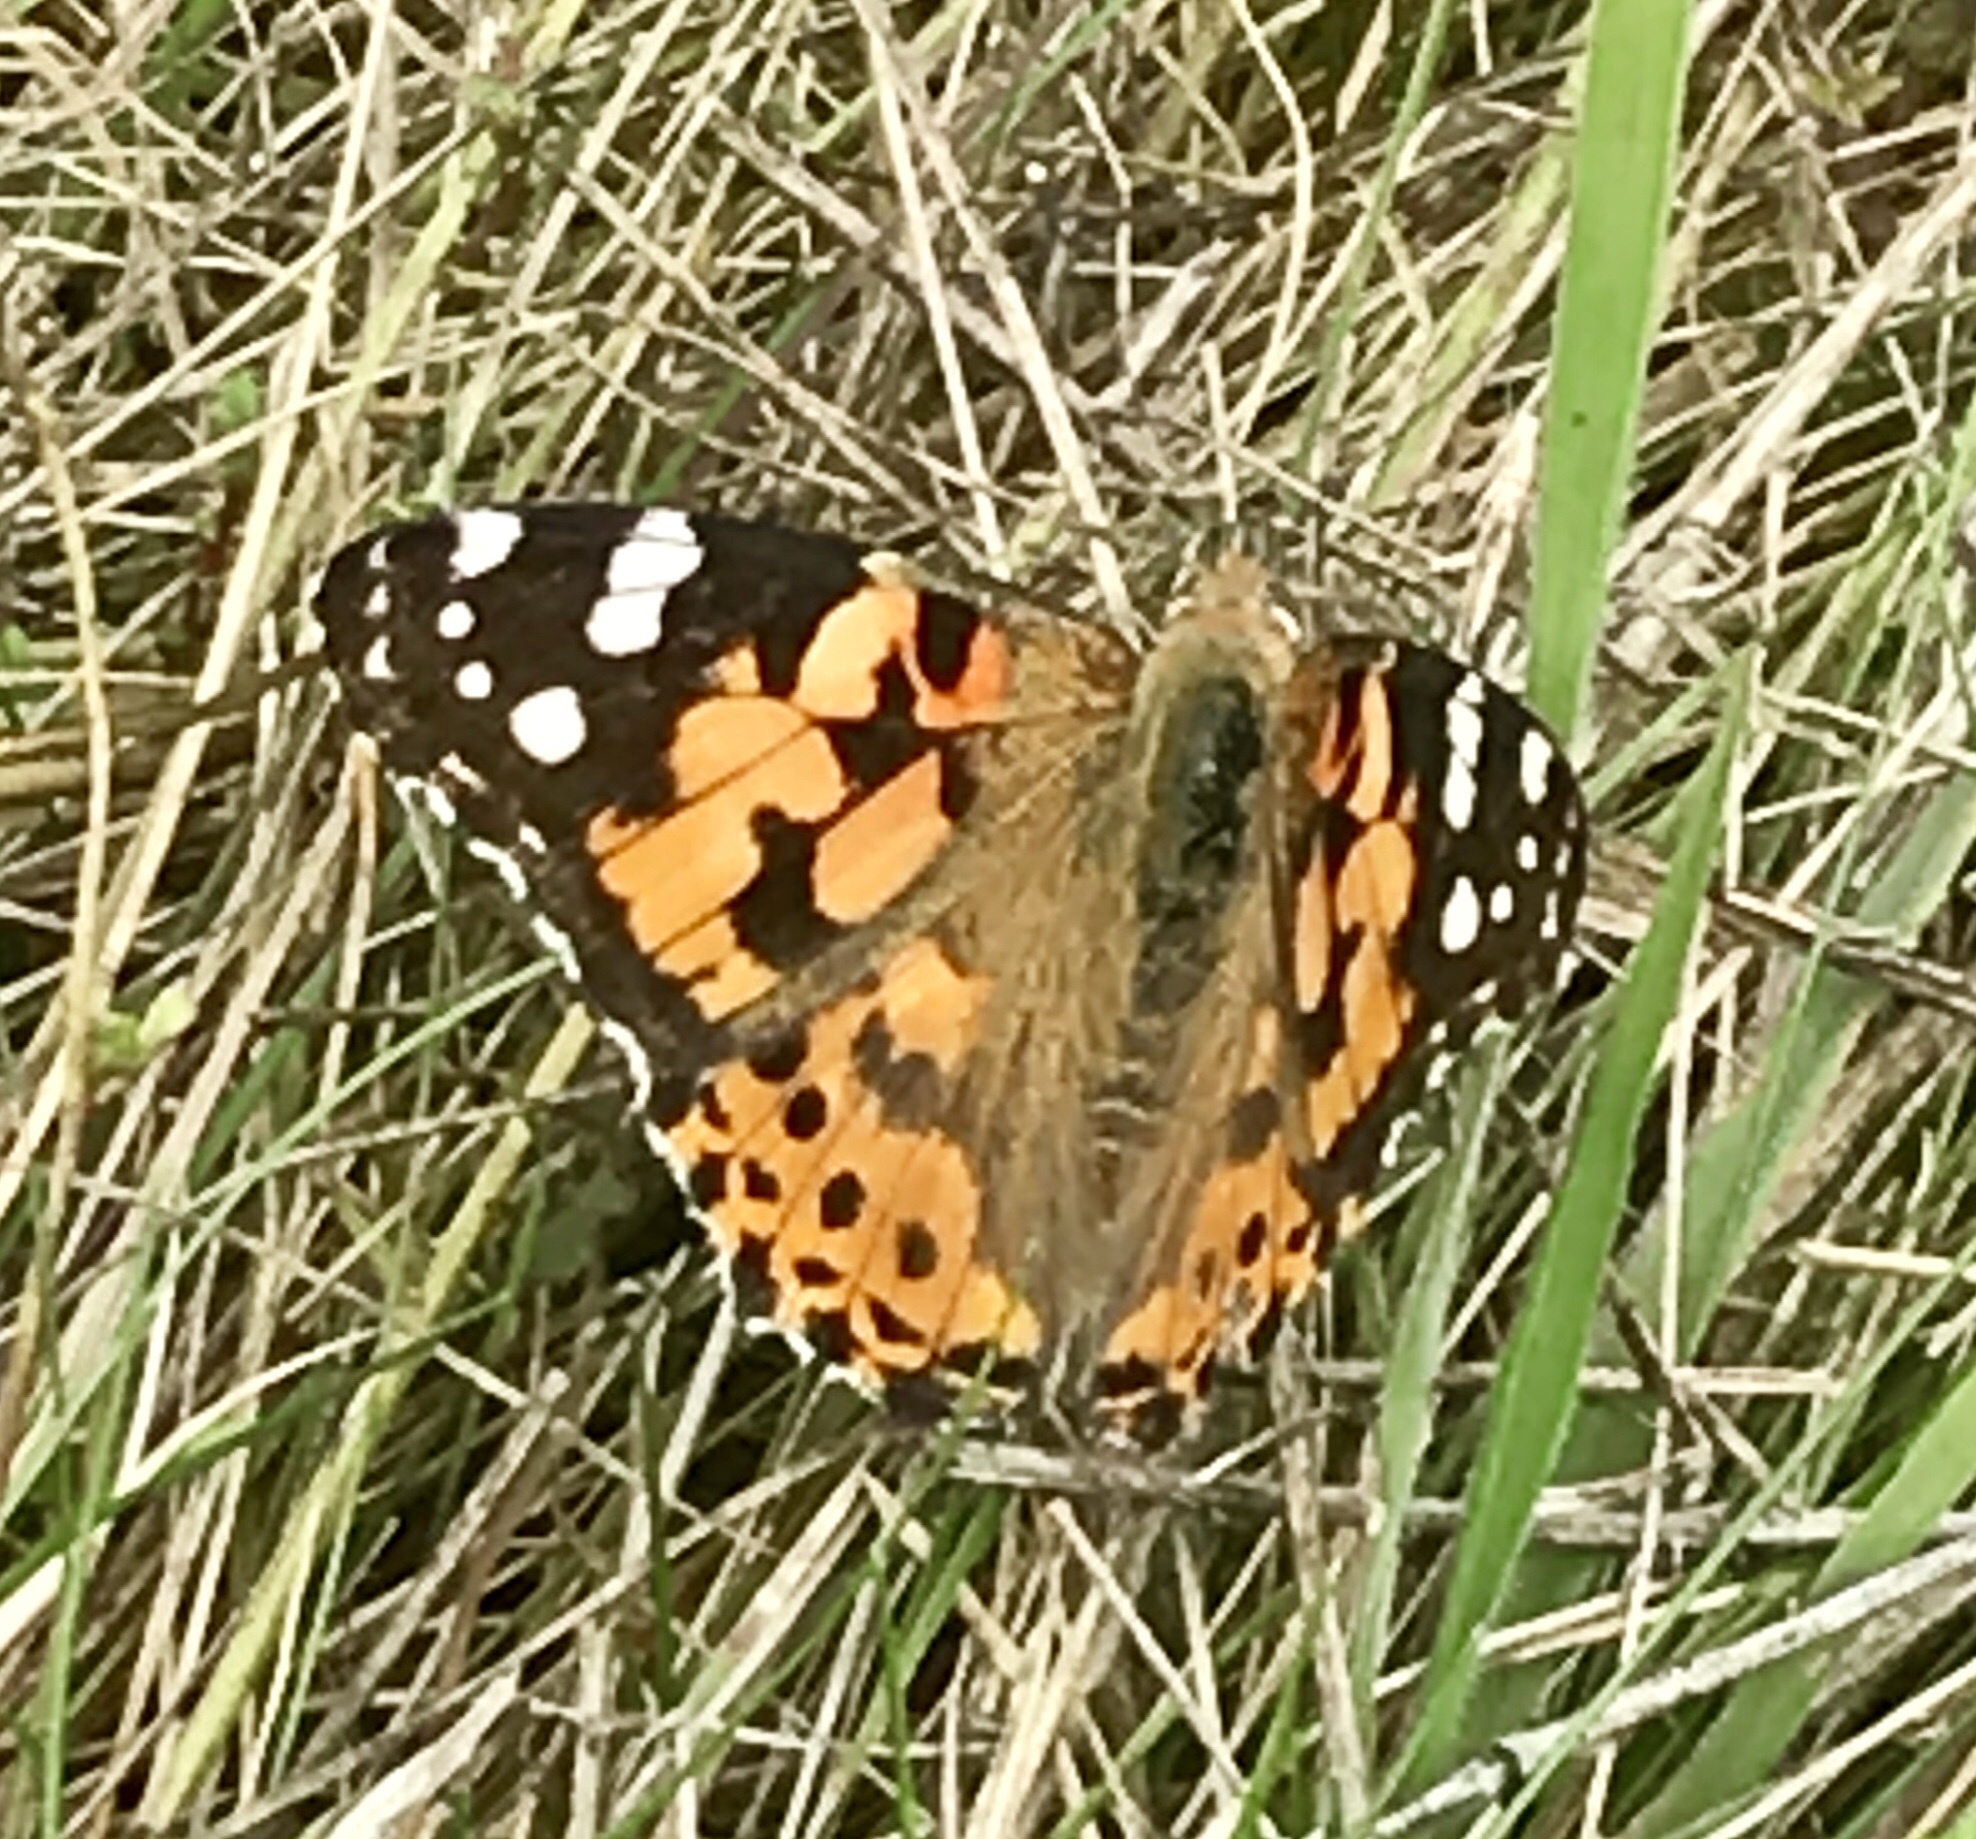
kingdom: Animalia
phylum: Arthropoda
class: Insecta
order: Lepidoptera
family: Nymphalidae
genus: Vanessa
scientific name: Vanessa cardui
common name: Painted lady
